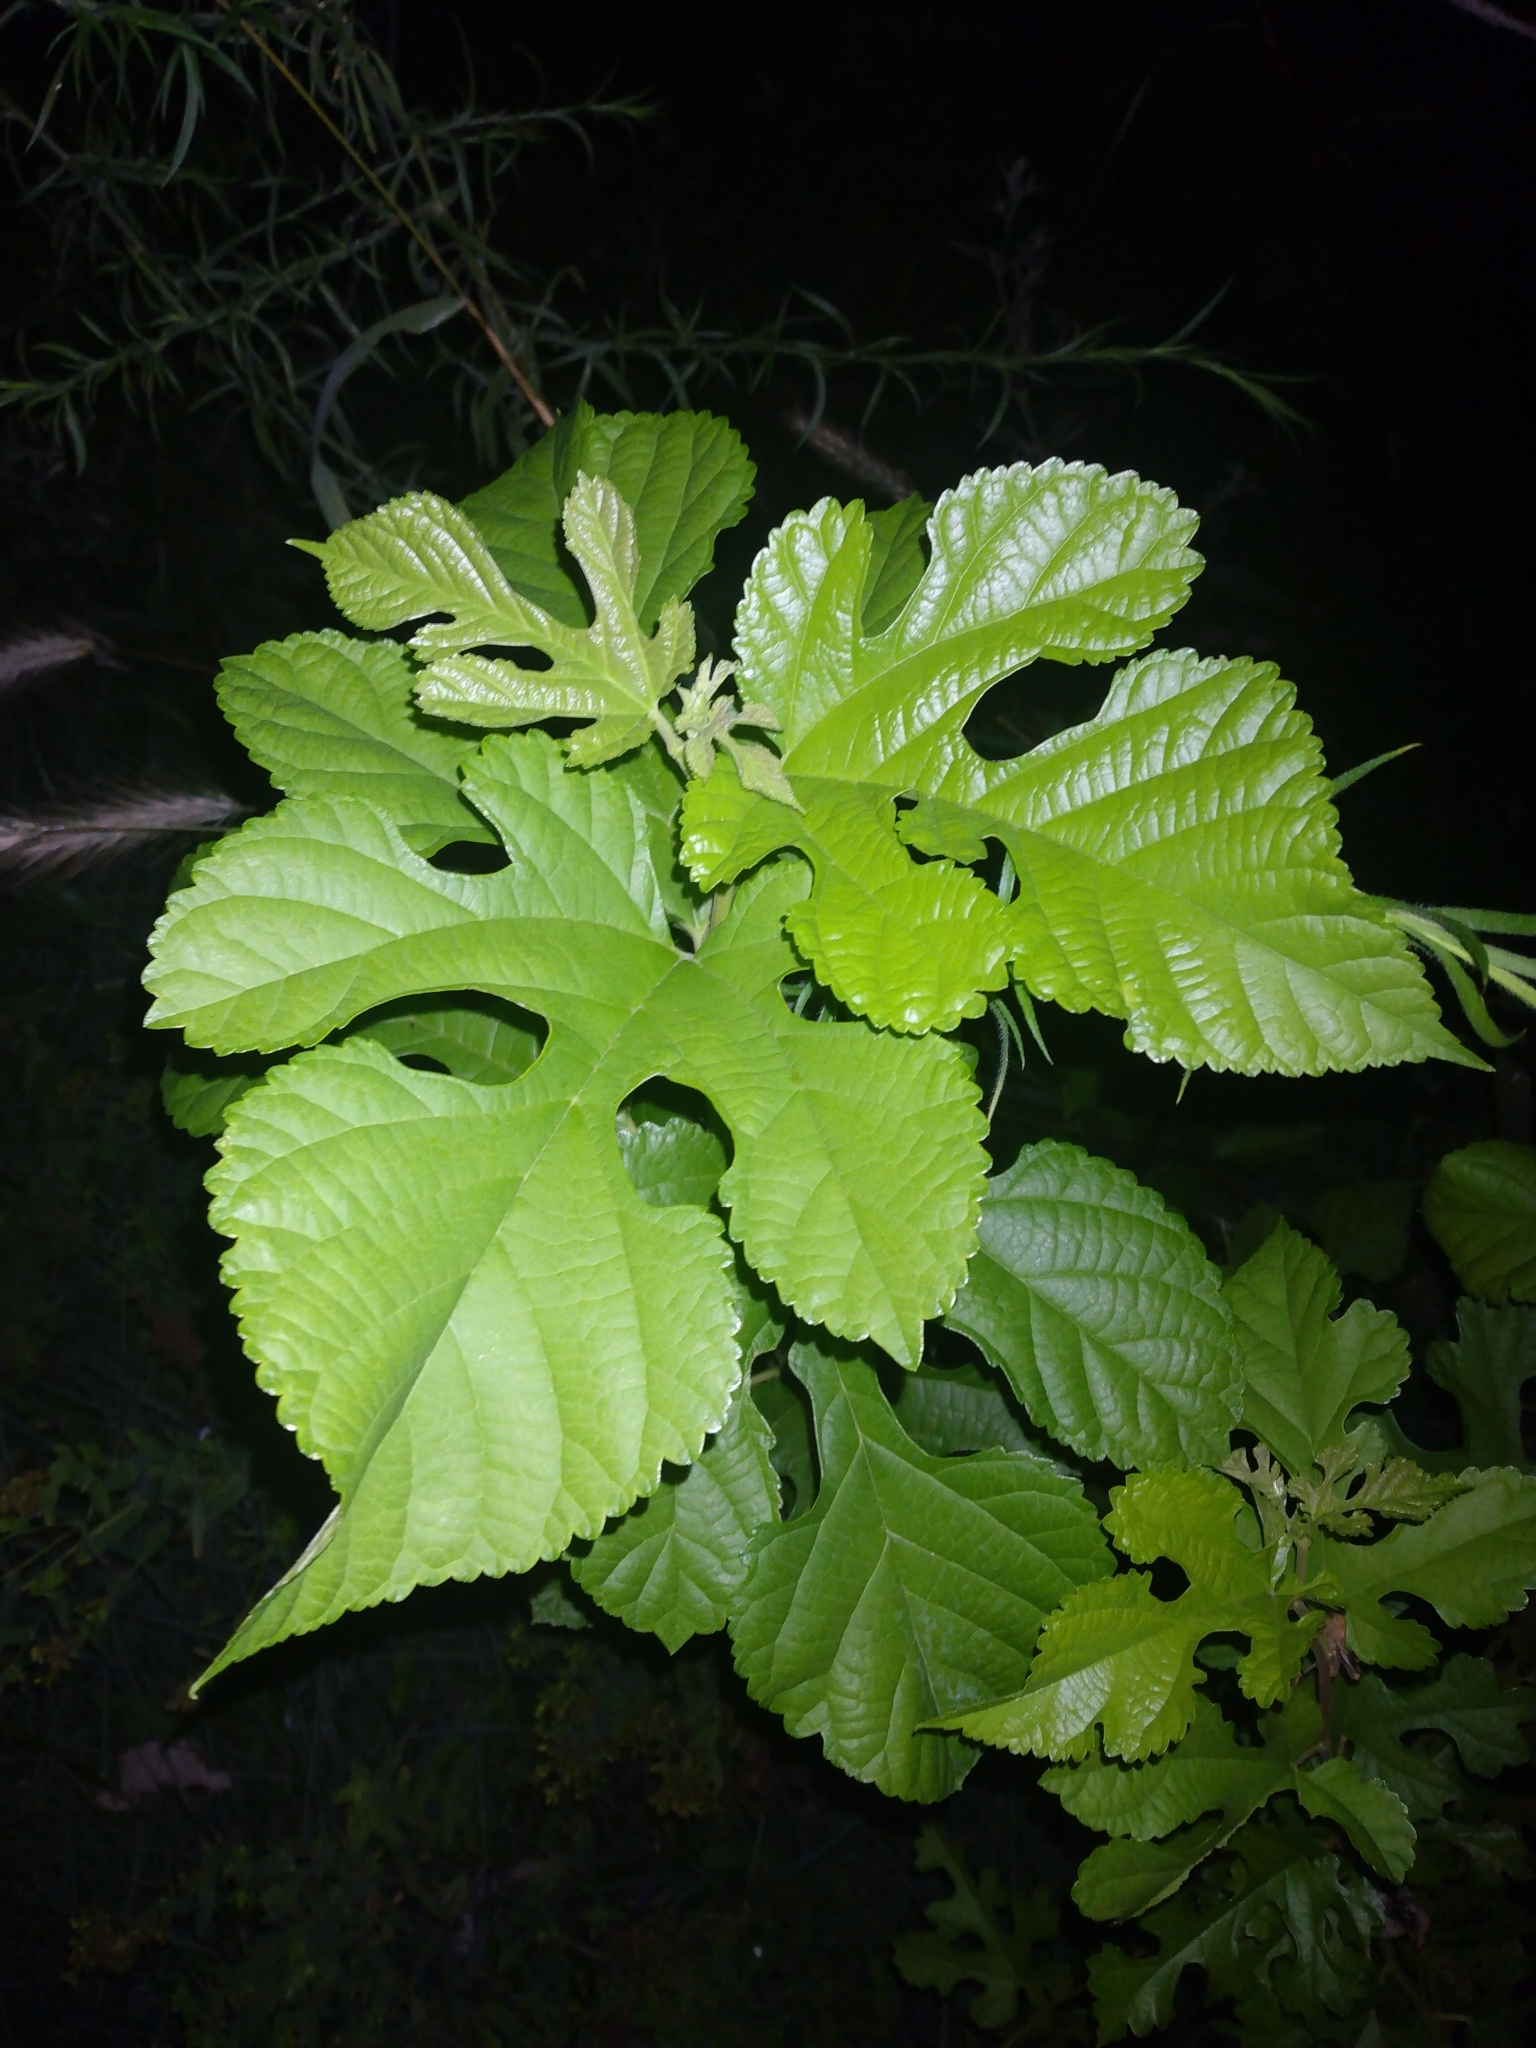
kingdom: Plantae
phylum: Tracheophyta
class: Magnoliopsida
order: Rosales
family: Moraceae
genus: Morus
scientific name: Morus alba
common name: White mulberry
